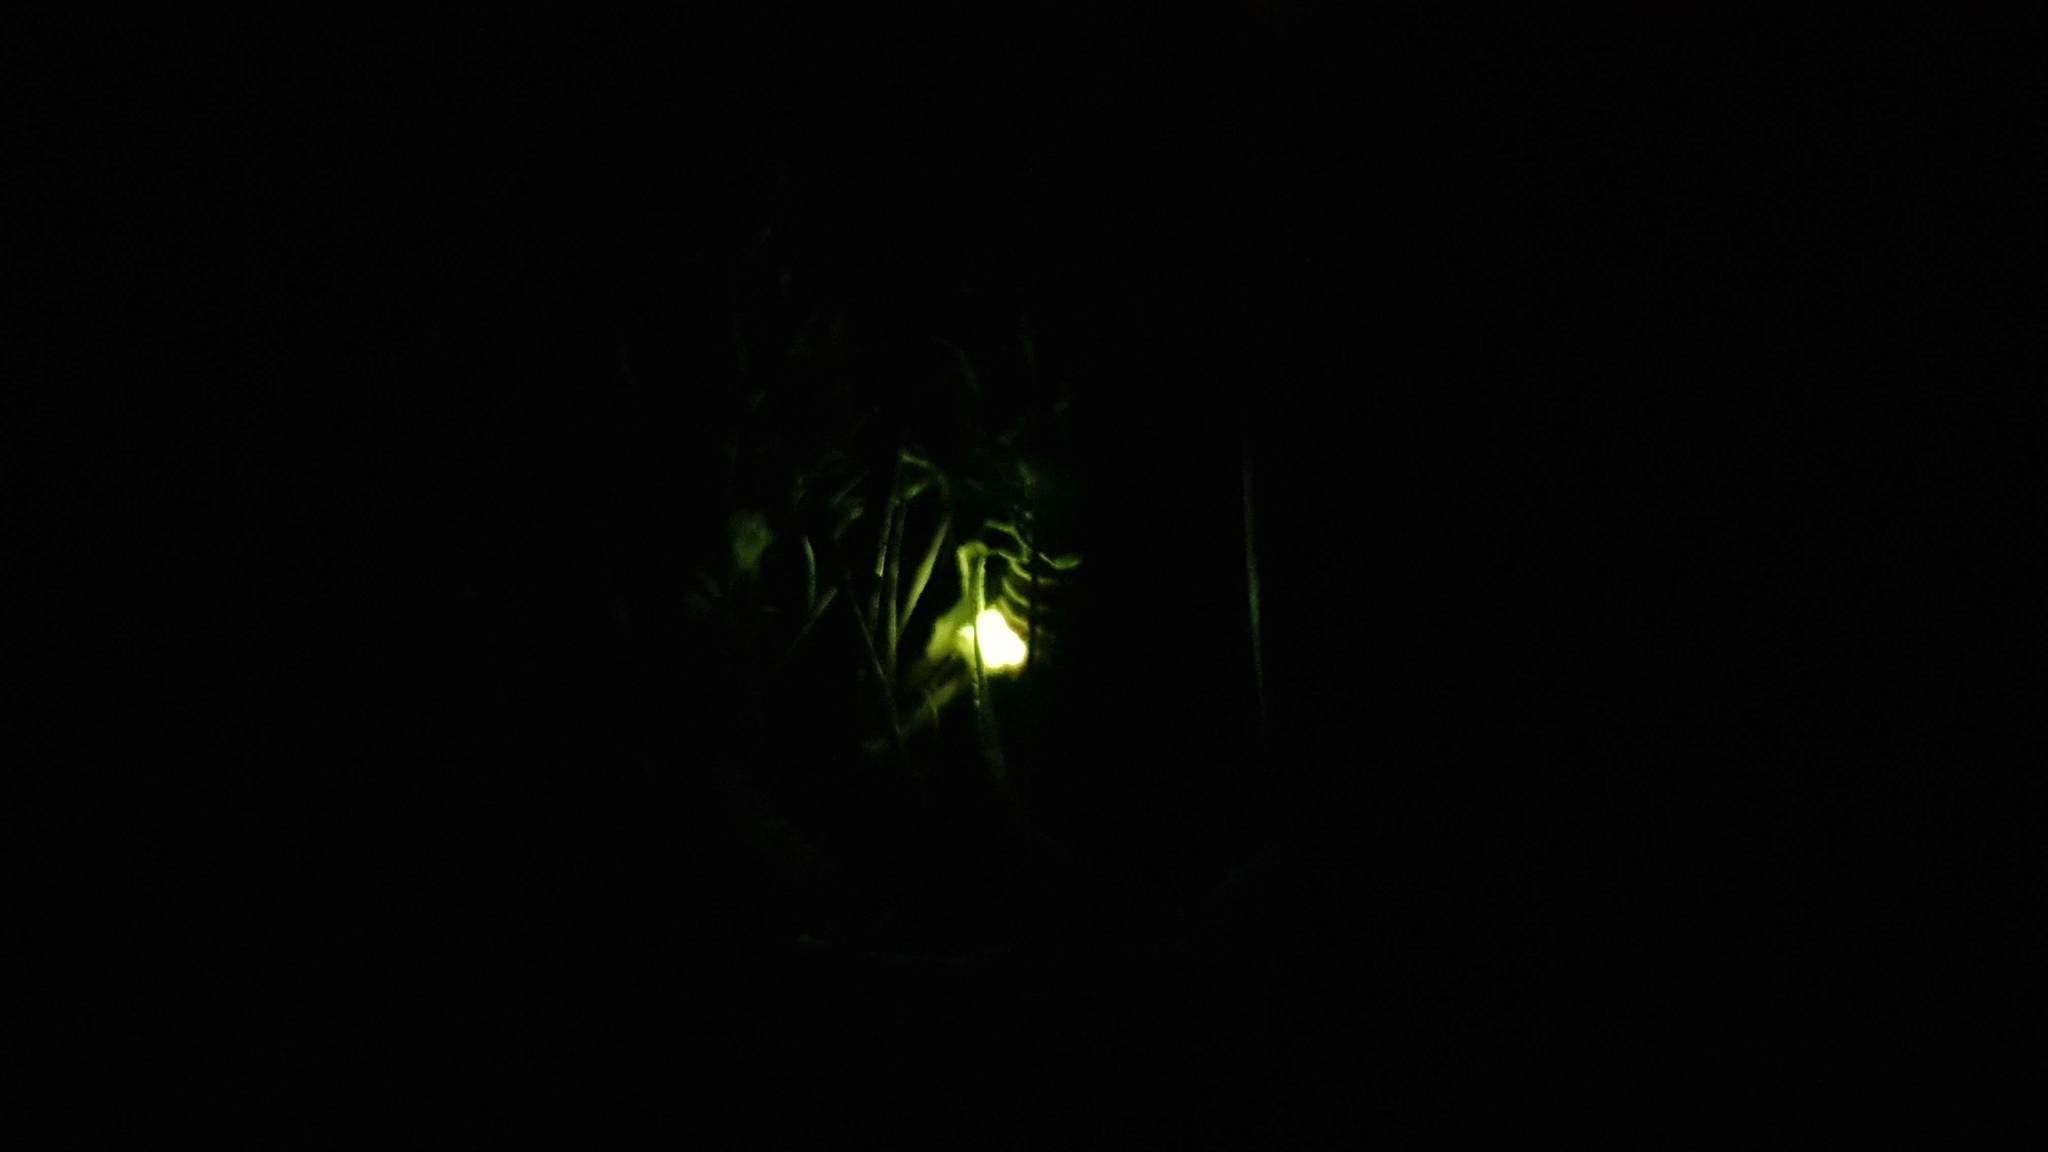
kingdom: Animalia
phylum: Arthropoda
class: Insecta
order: Coleoptera
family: Lampyridae
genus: Lampyris
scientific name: Lampyris noctiluca
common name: Glow-worm
